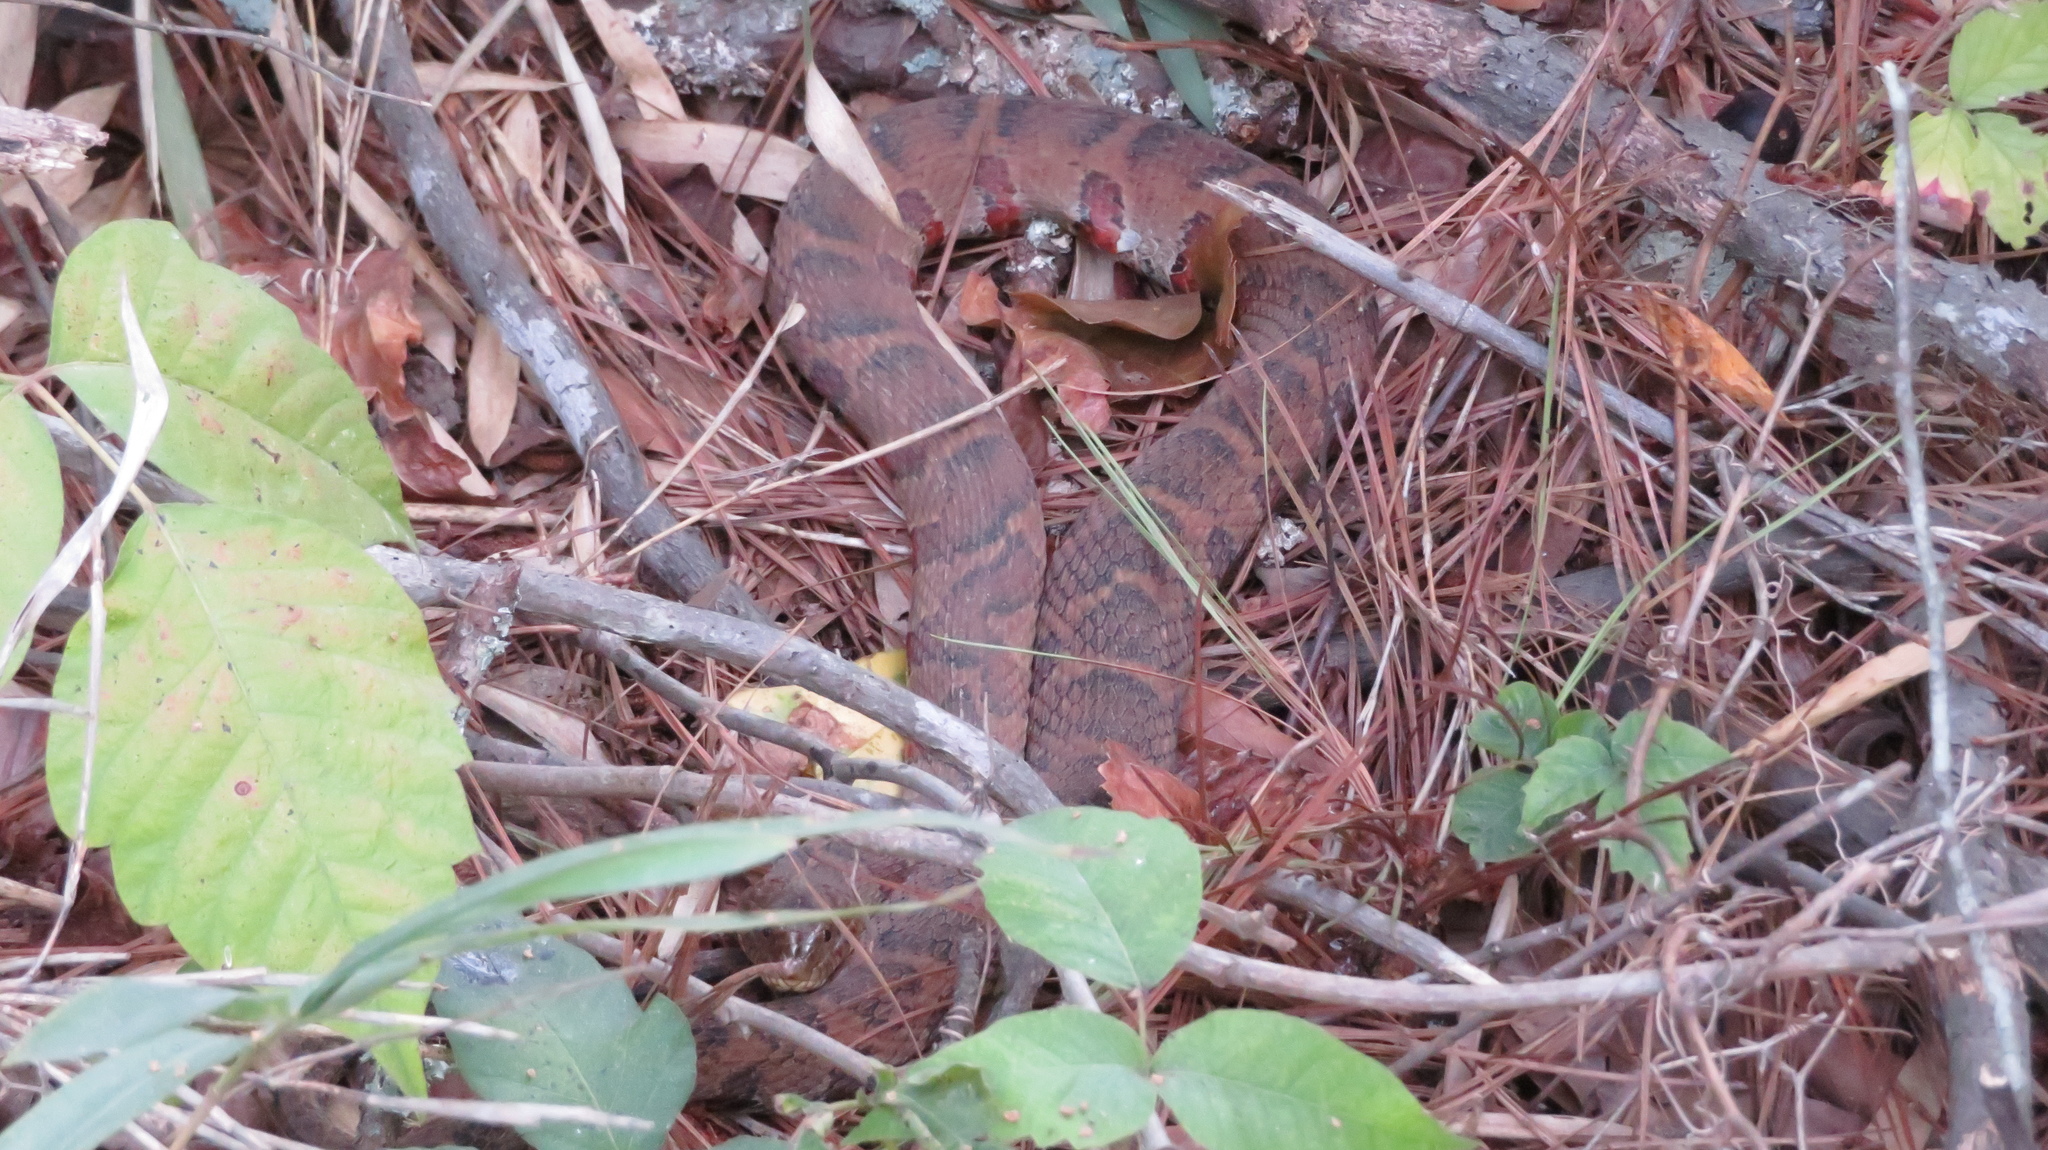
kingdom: Animalia
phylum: Chordata
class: Squamata
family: Colubridae
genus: Nerodia
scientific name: Nerodia sipedon
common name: Northern water snake
